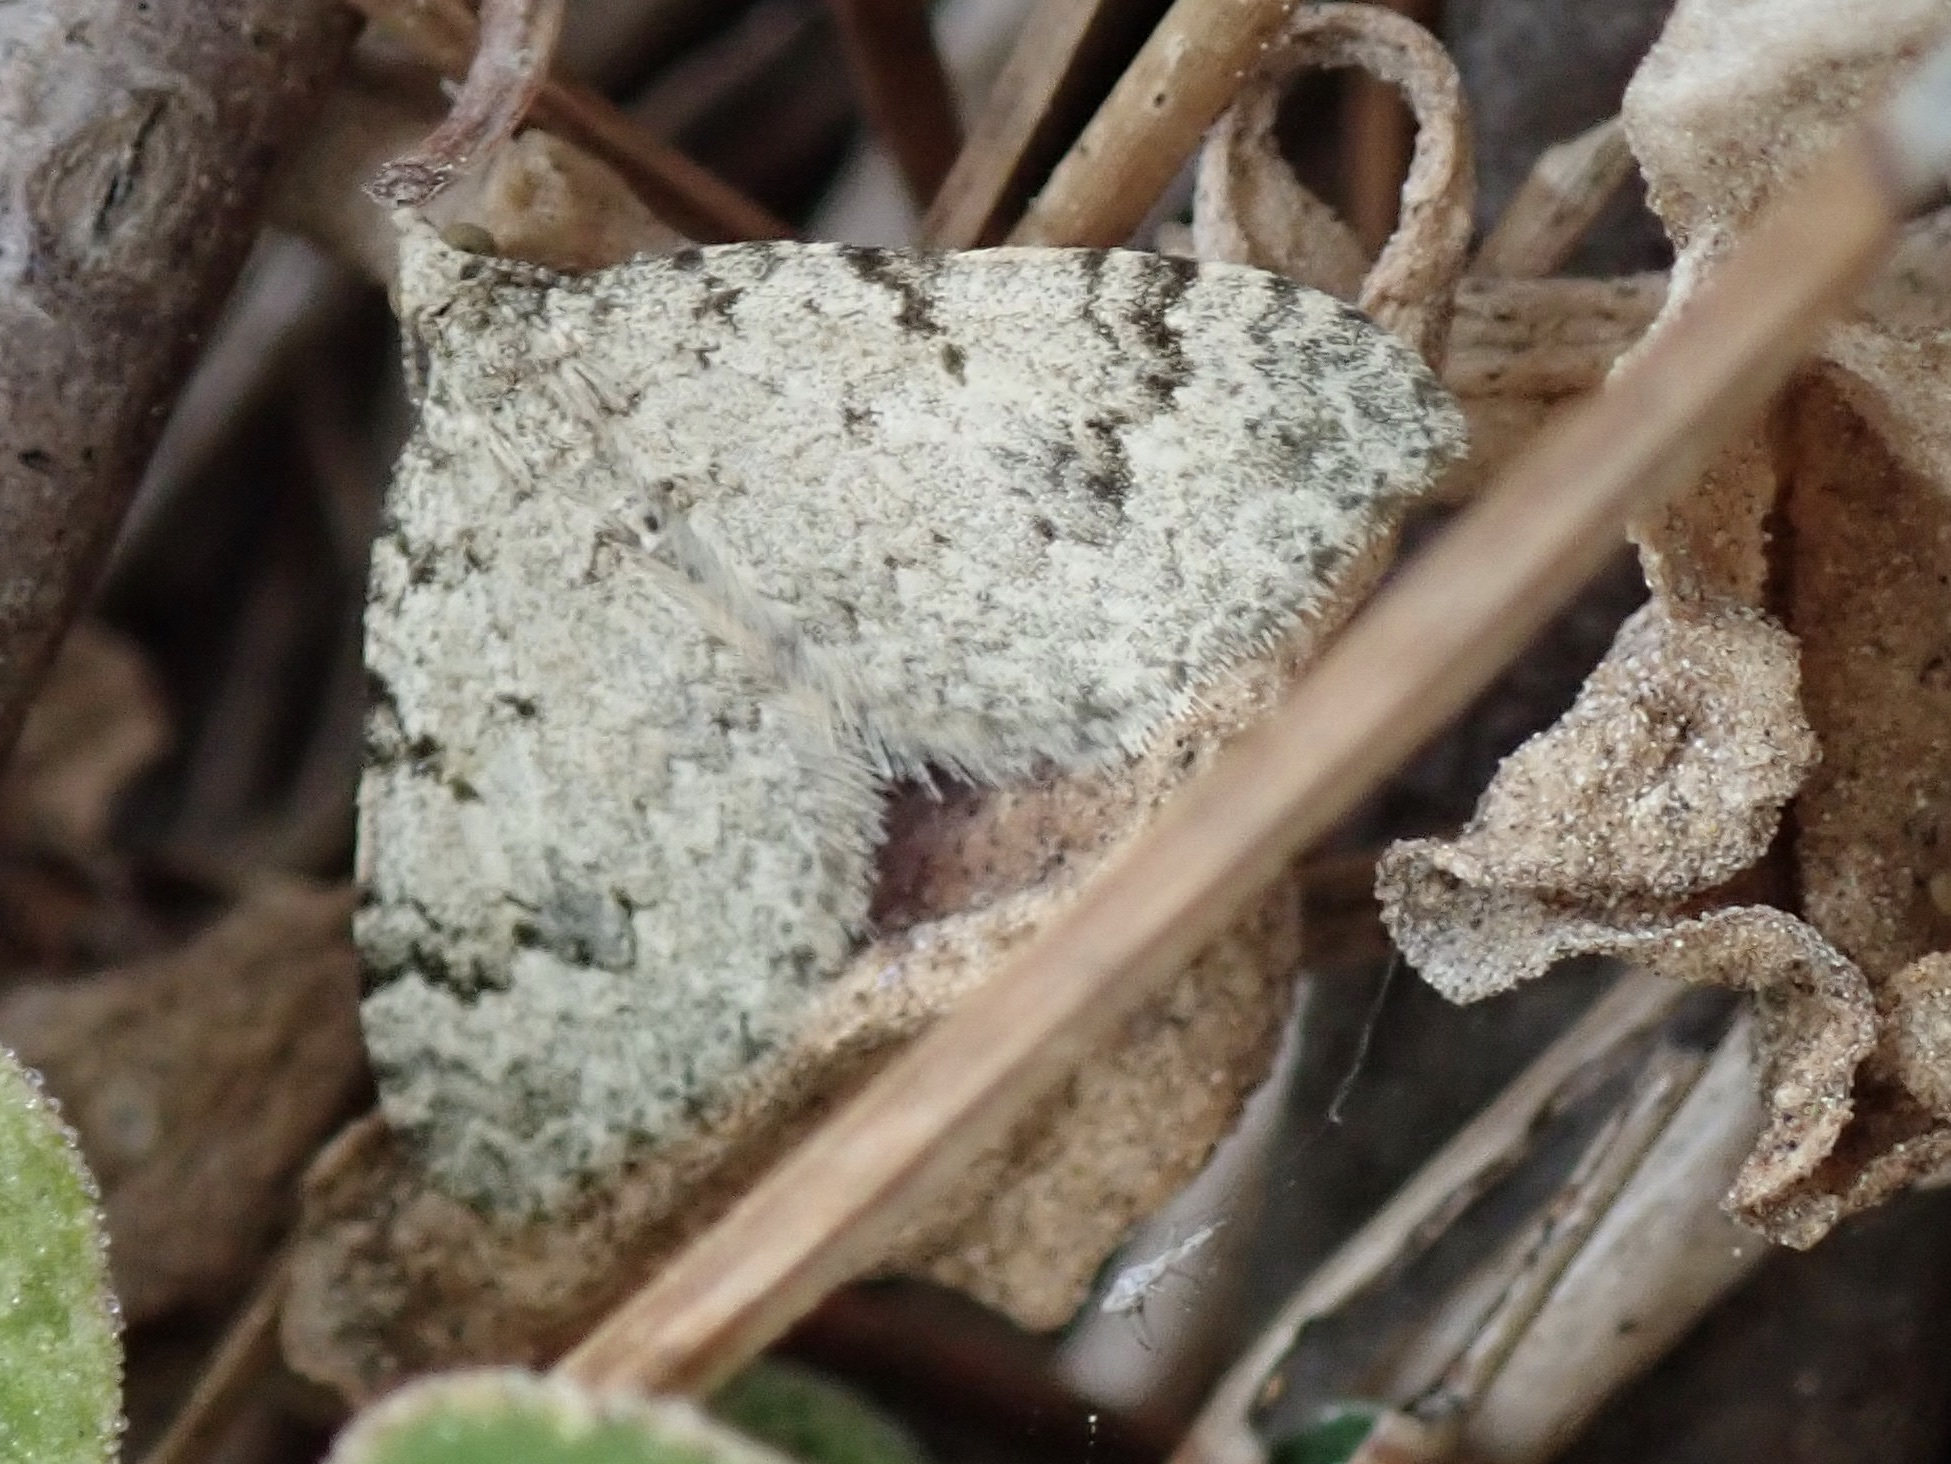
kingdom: Animalia
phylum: Arthropoda
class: Insecta
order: Lepidoptera
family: Geometridae
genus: Helastia
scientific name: Helastia cinerearia
